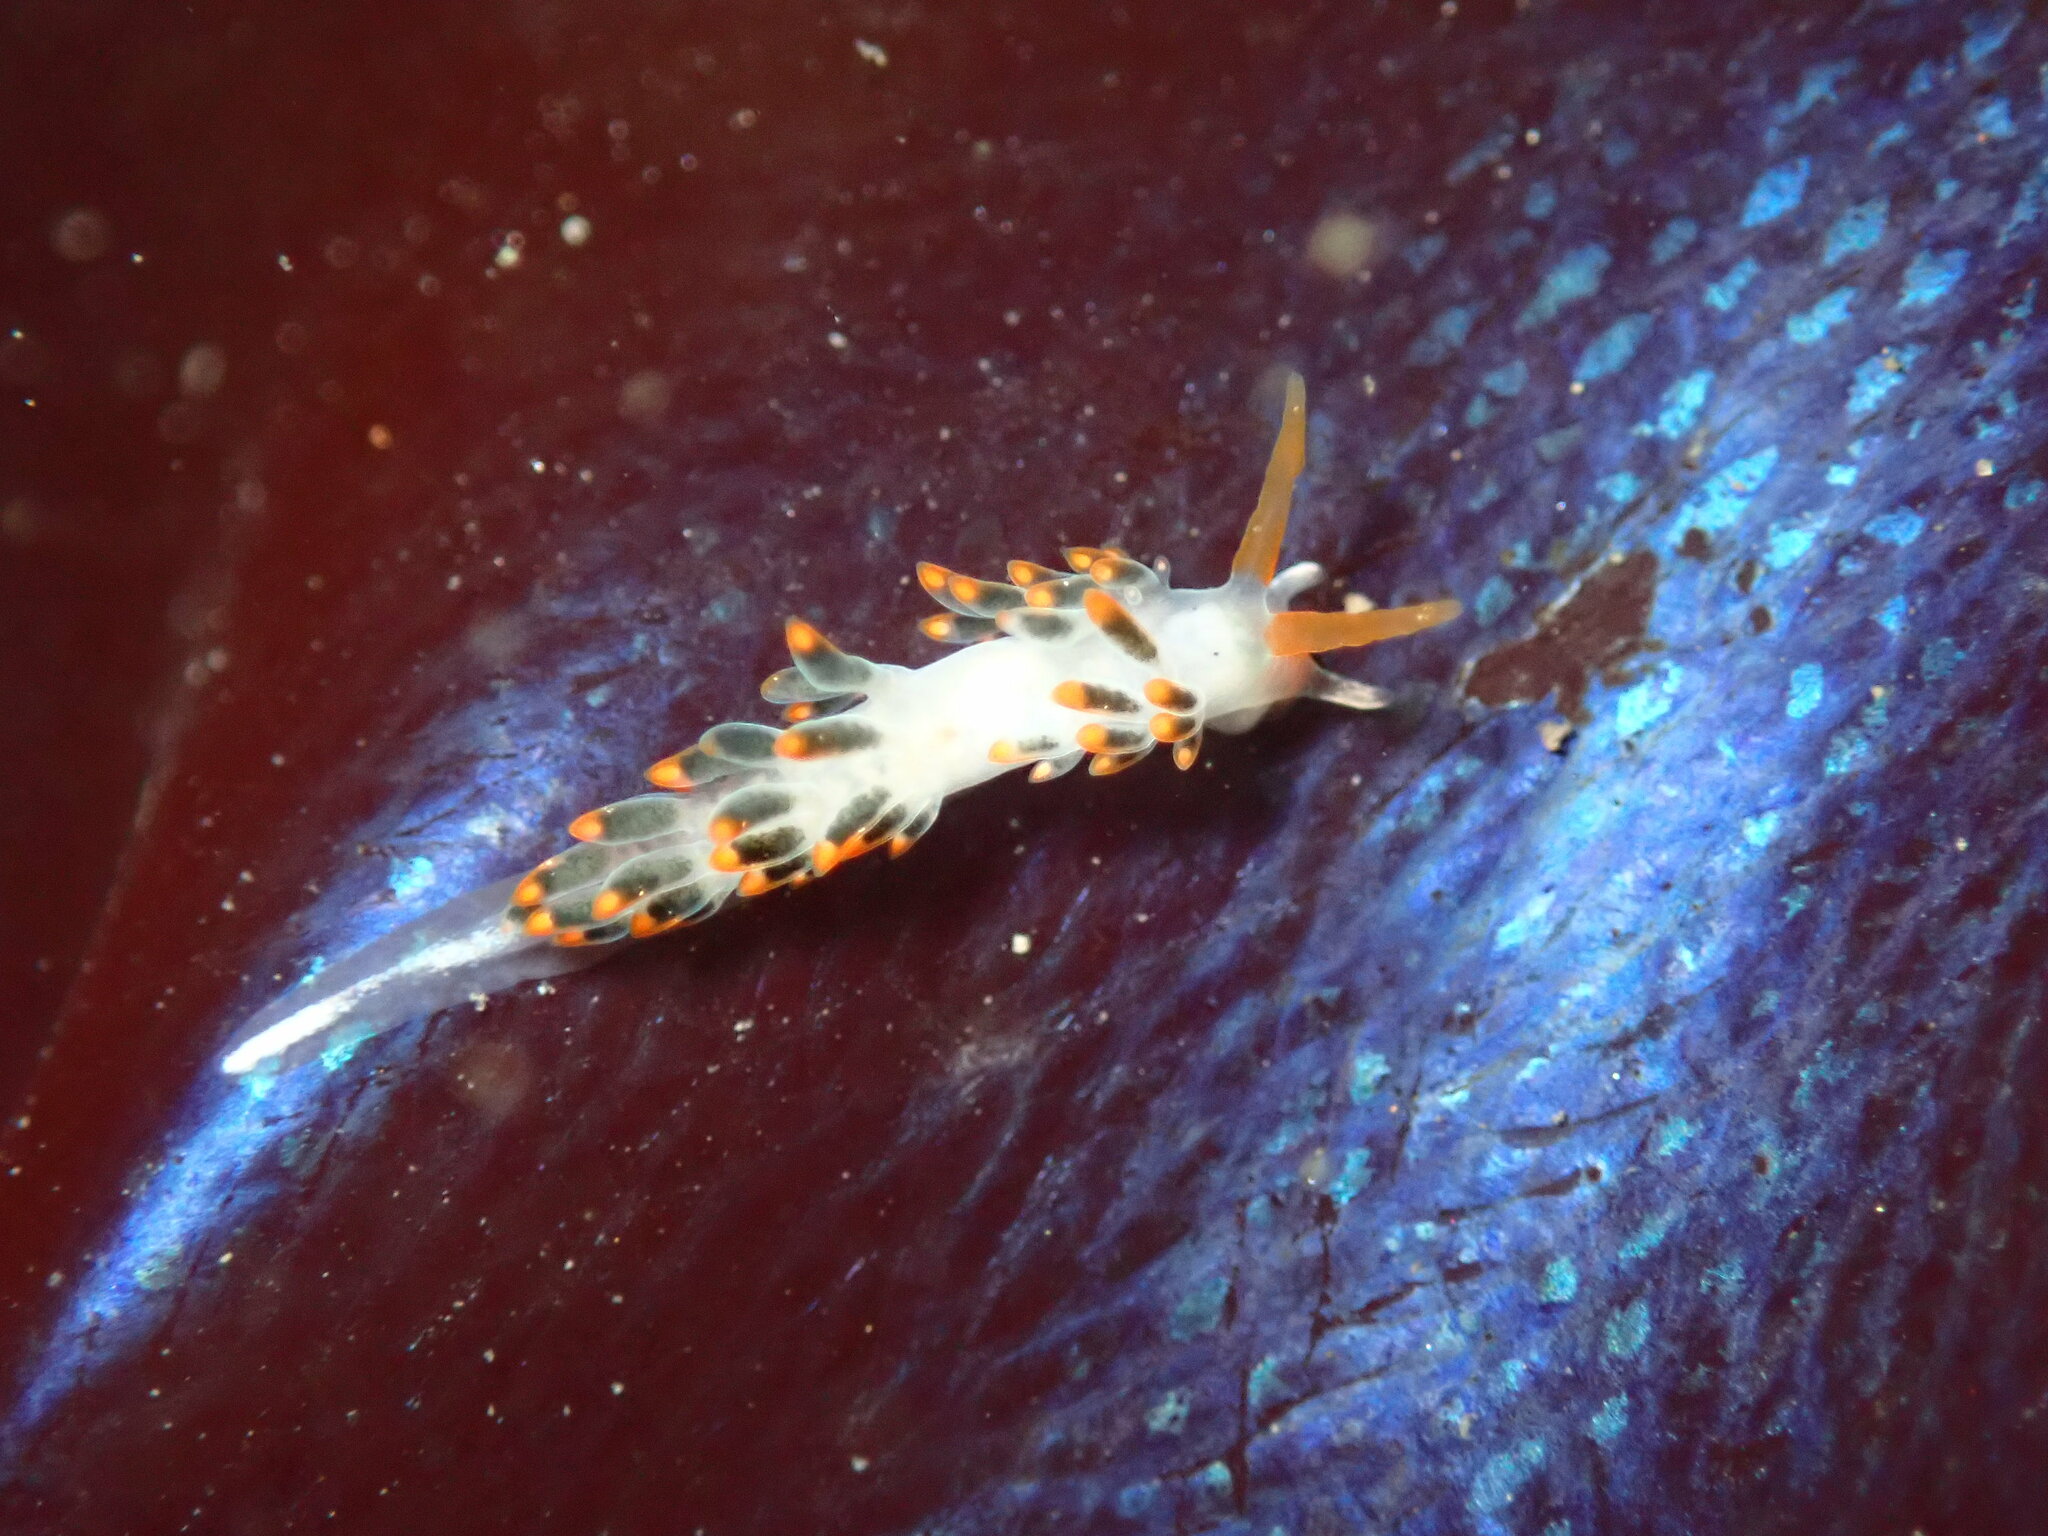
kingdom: Animalia
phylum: Mollusca
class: Gastropoda
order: Nudibranchia
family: Trinchesiidae
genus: Diaphoreolis
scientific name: Diaphoreolis lagunae
